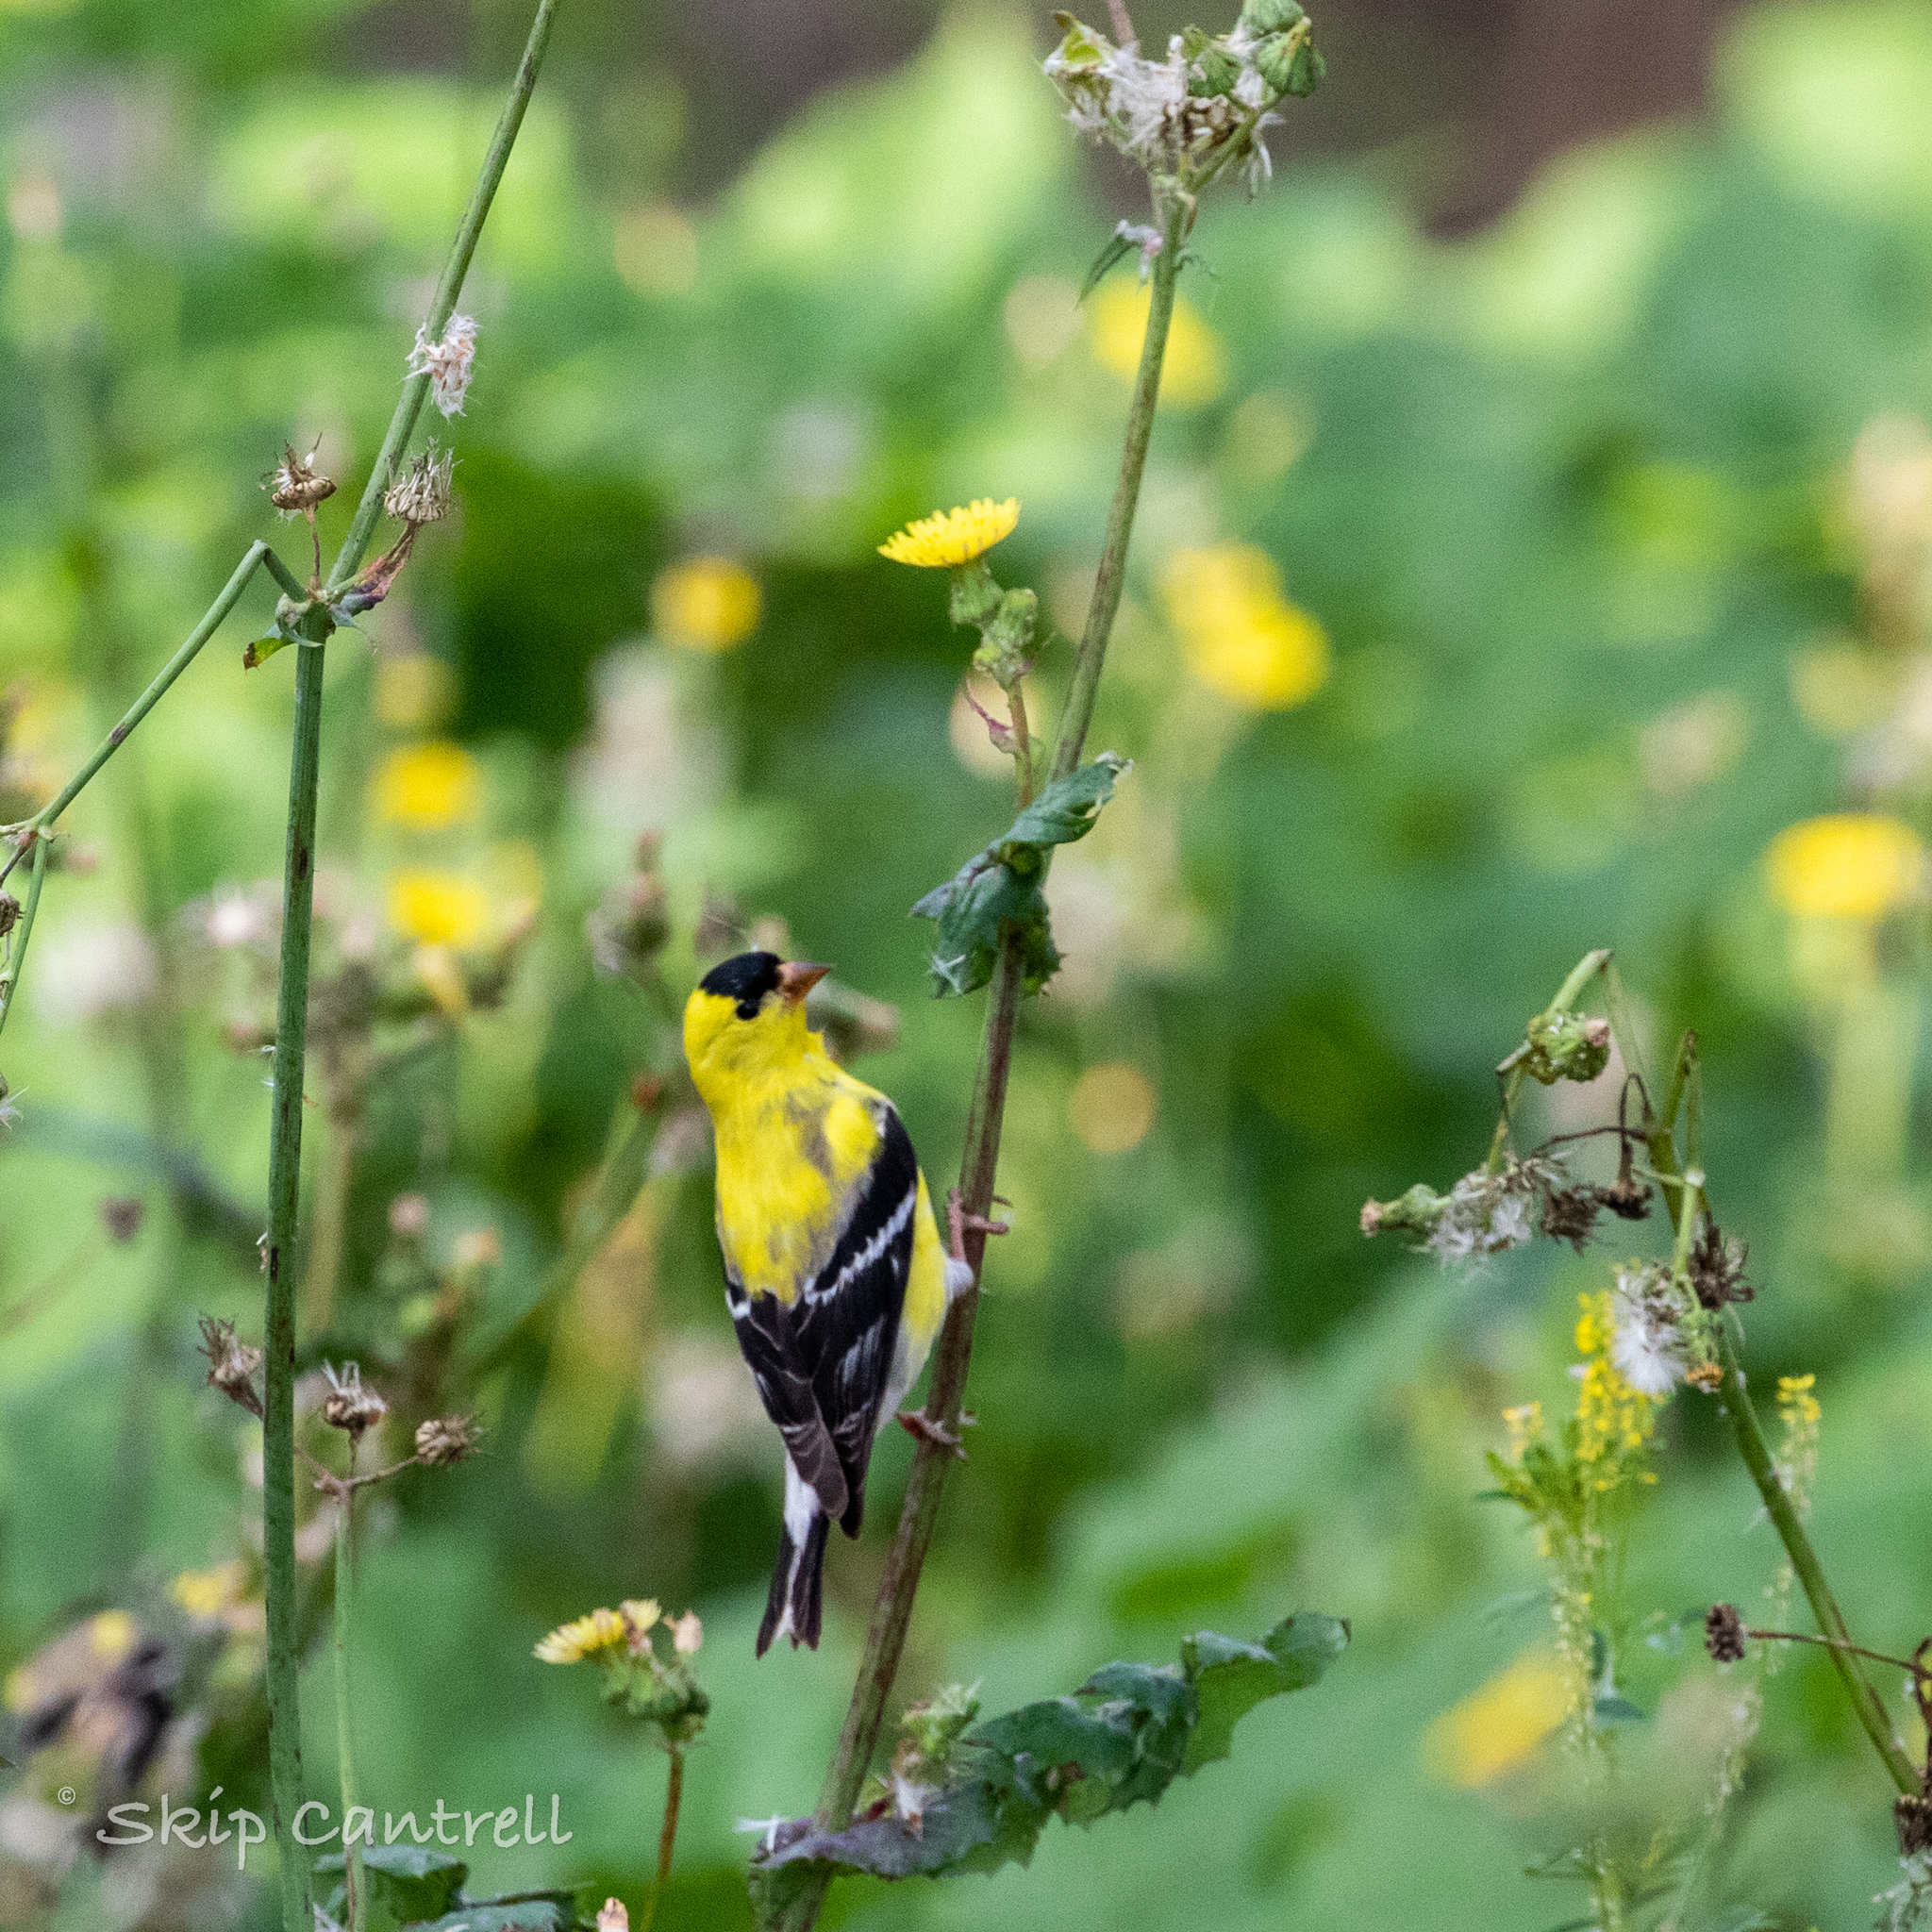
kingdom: Animalia
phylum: Chordata
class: Aves
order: Passeriformes
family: Fringillidae
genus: Spinus
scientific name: Spinus tristis
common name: American goldfinch
